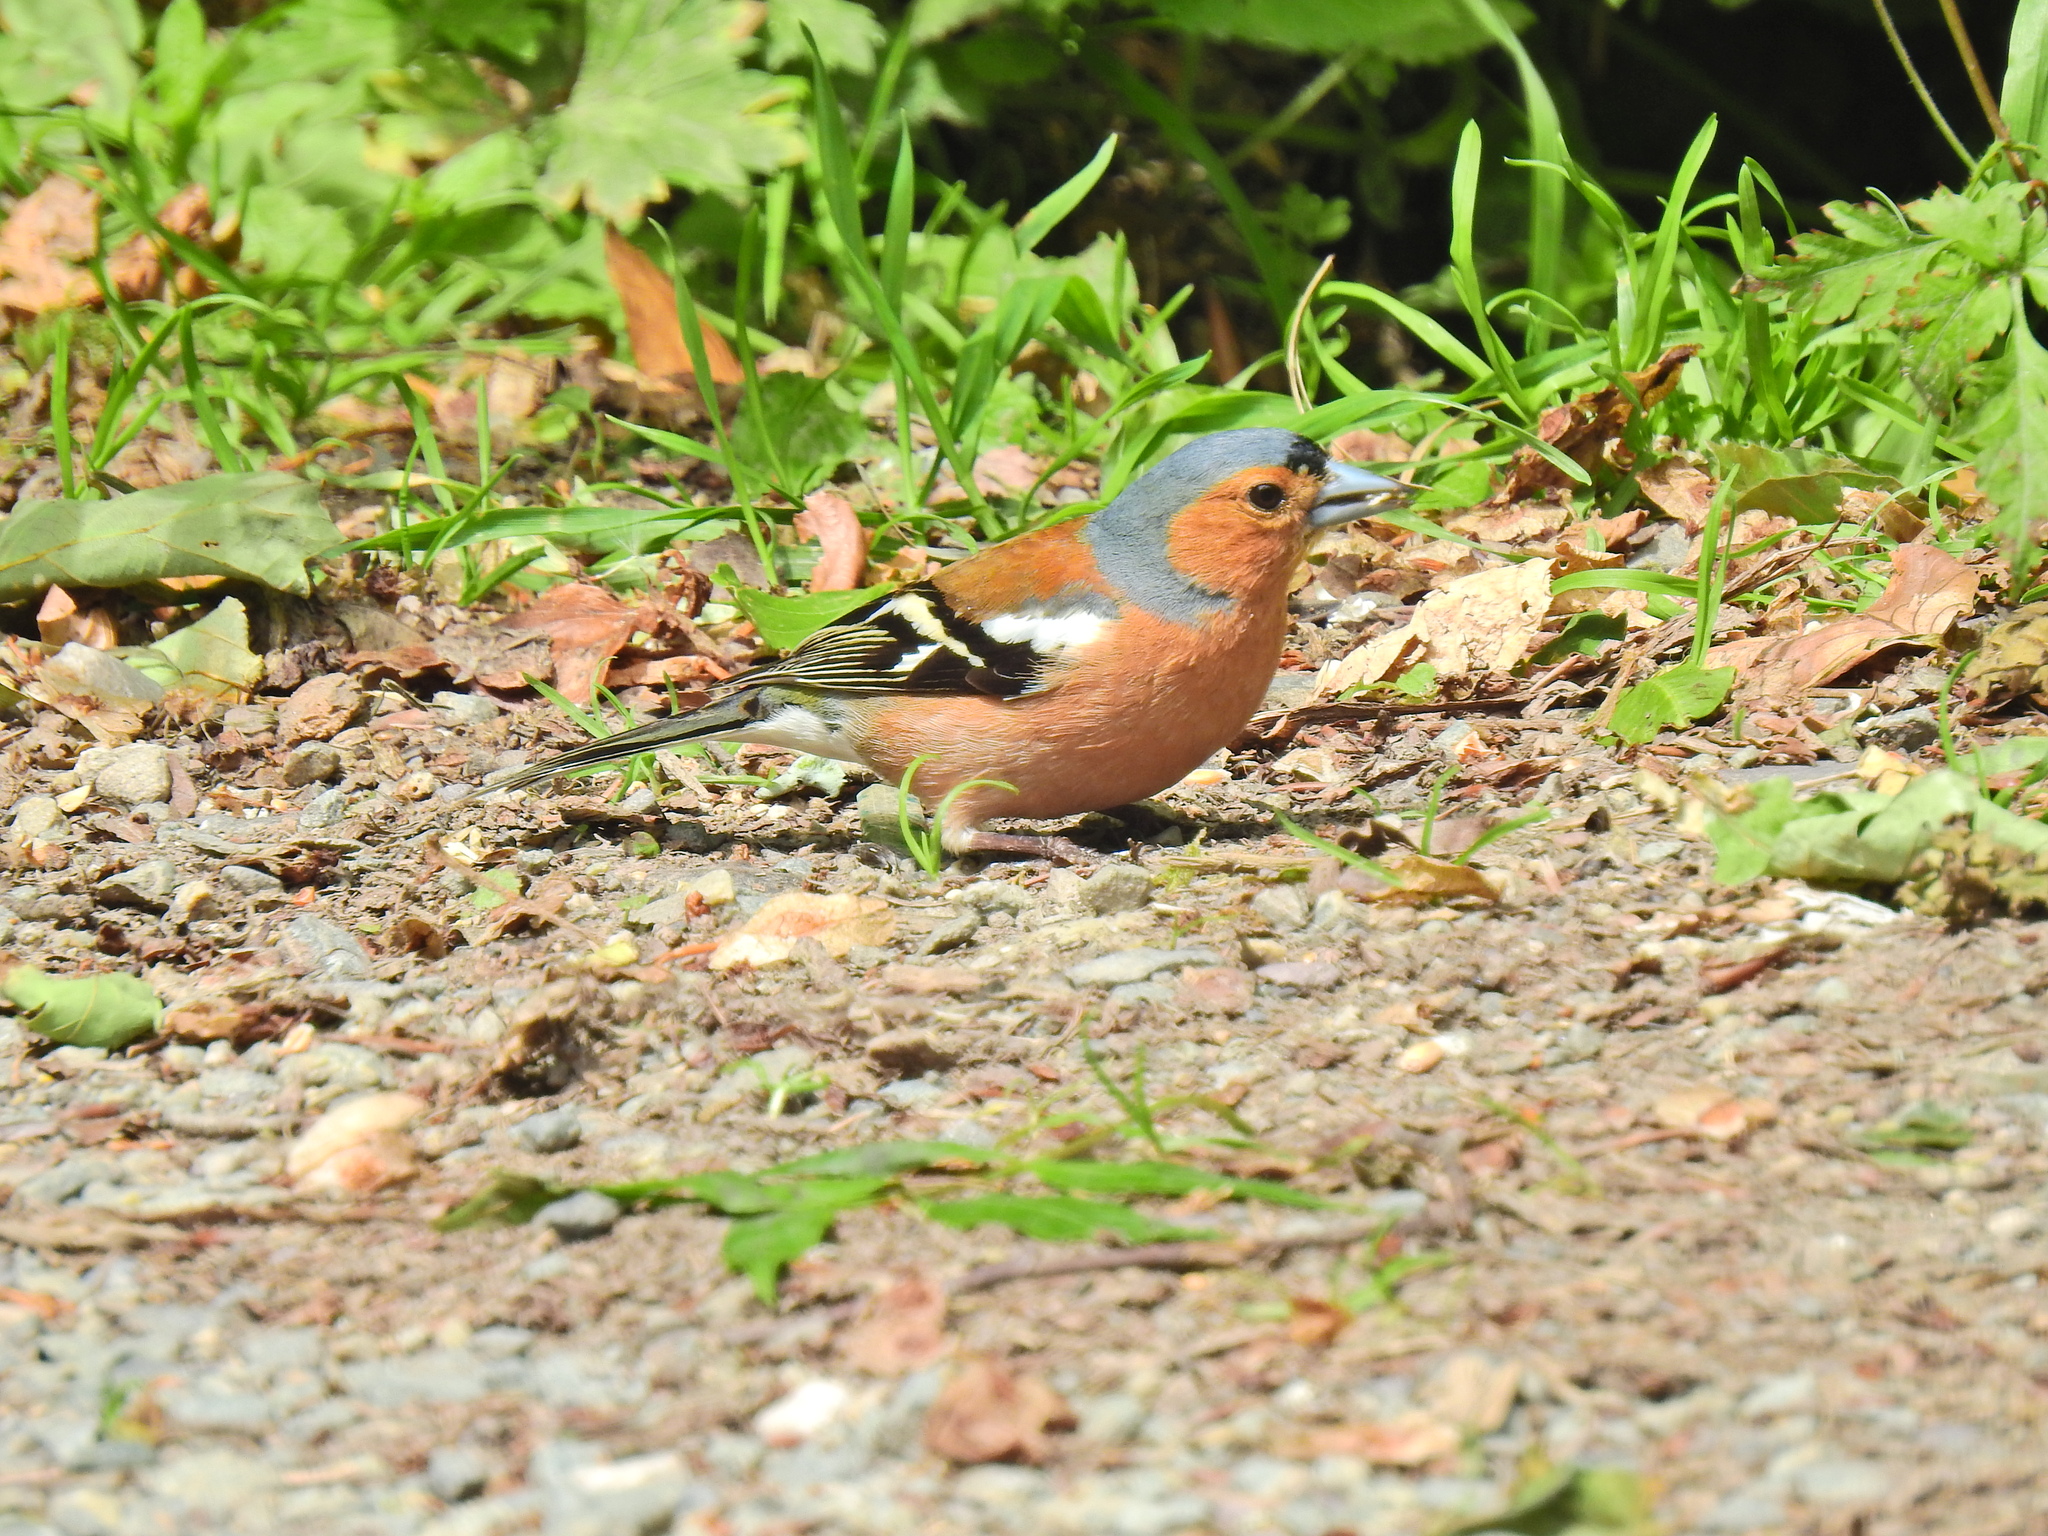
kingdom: Animalia
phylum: Chordata
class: Aves
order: Passeriformes
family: Fringillidae
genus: Fringilla
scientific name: Fringilla coelebs
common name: Common chaffinch
